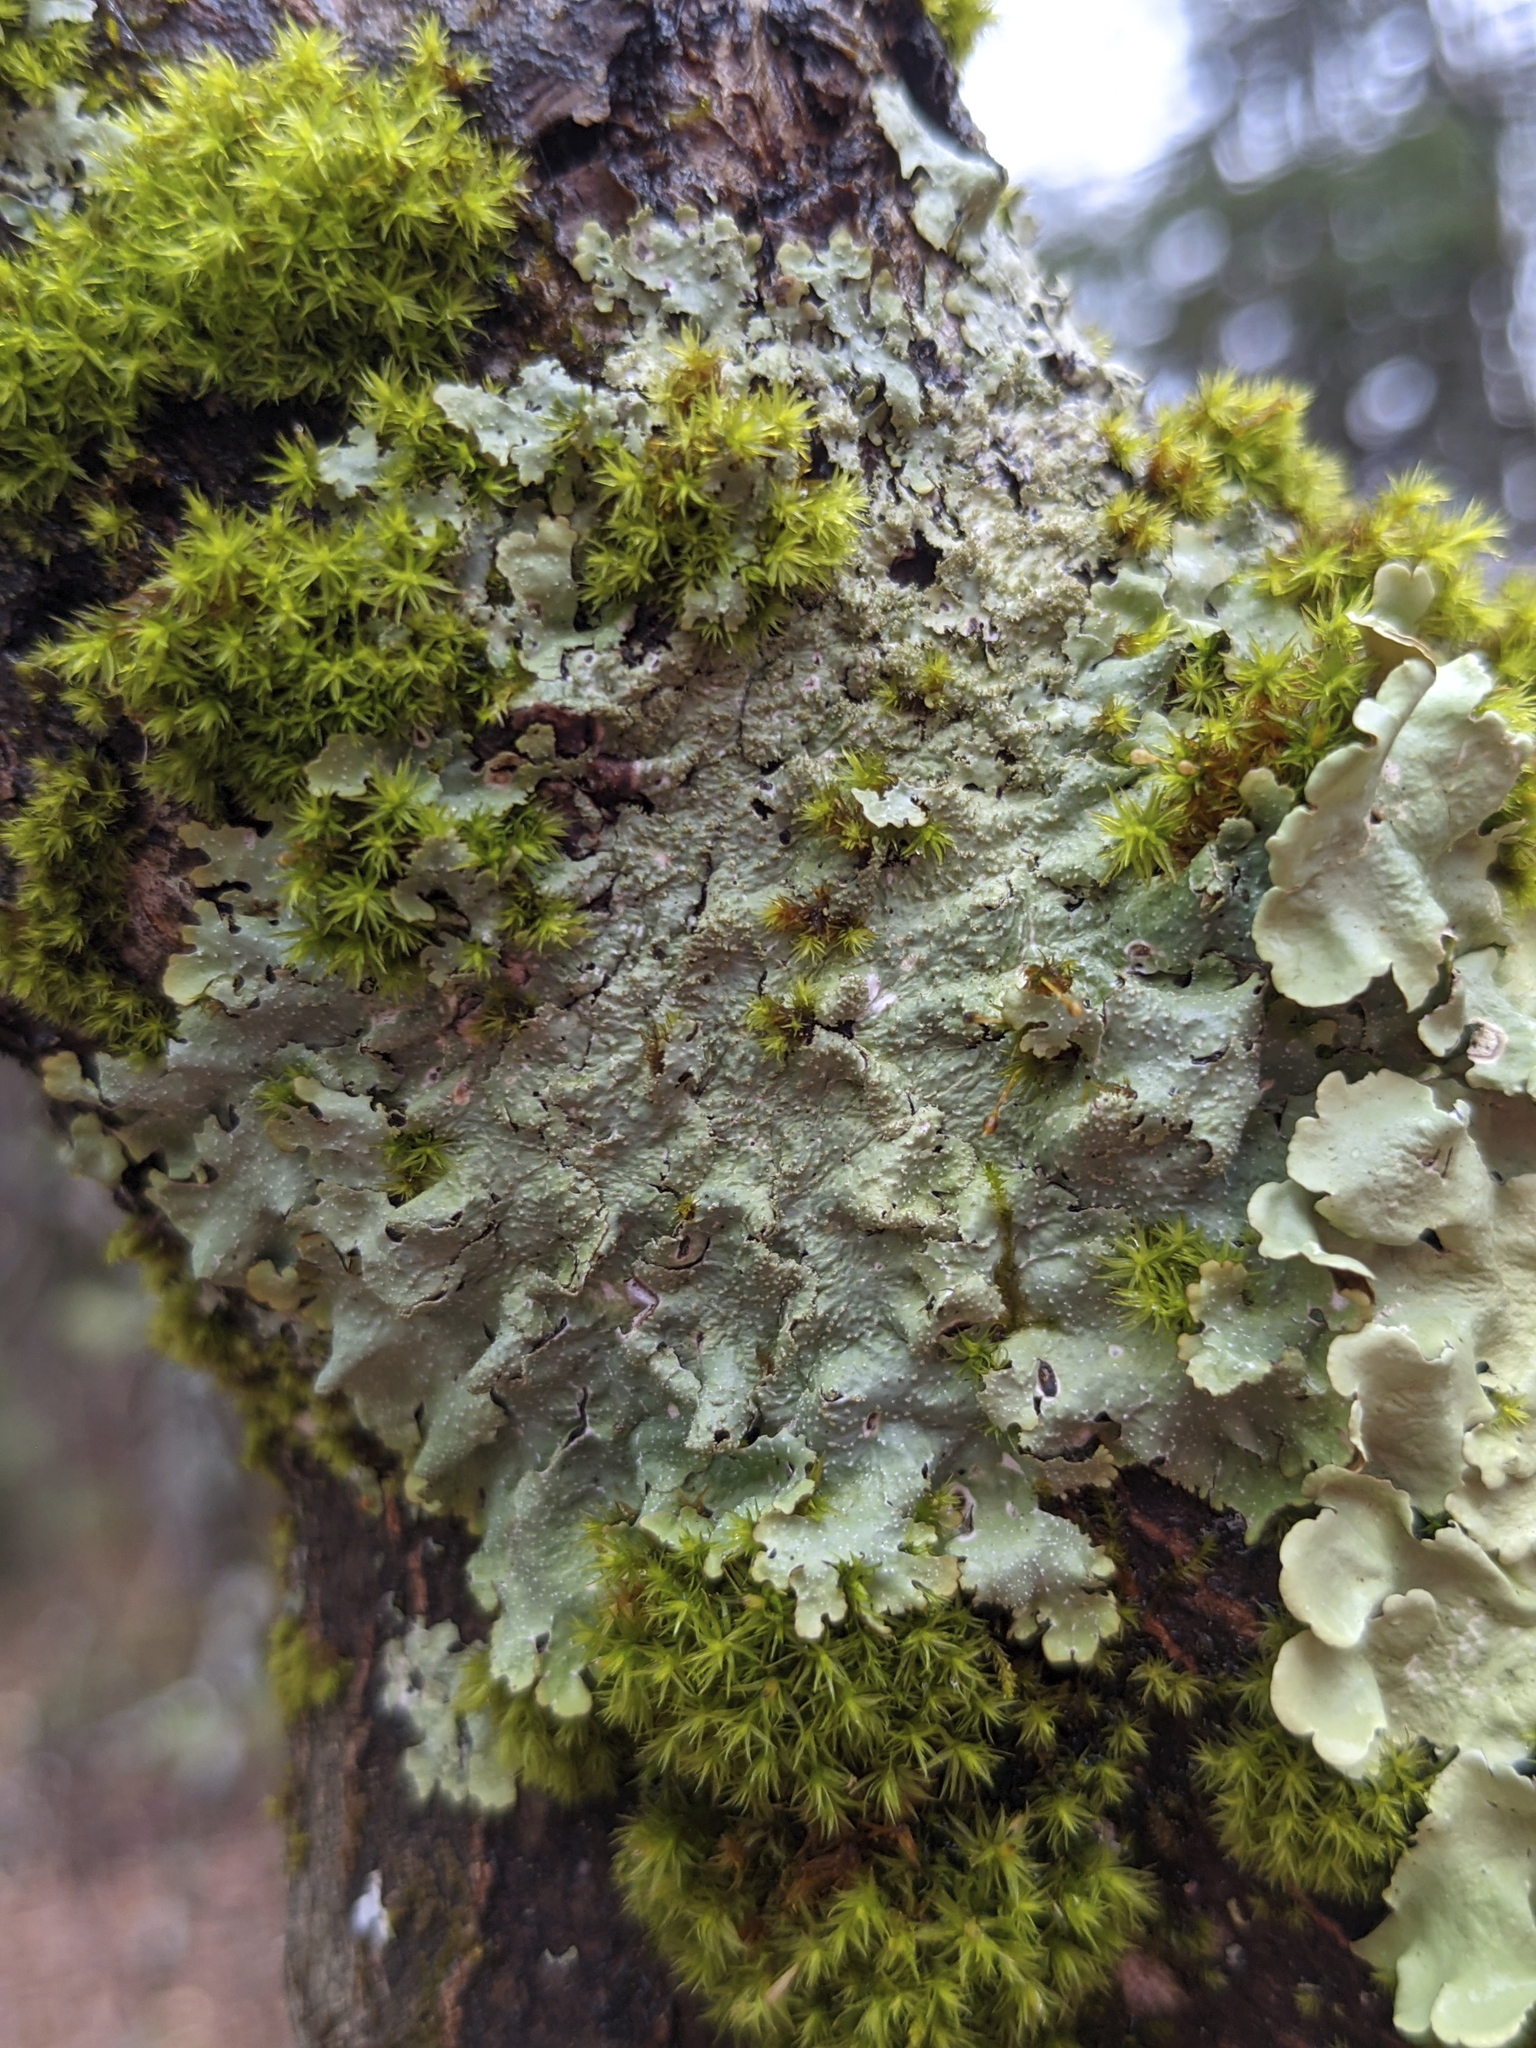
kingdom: Plantae
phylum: Bryophyta
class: Bryopsida
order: Orthotrichales
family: Orthotrichaceae
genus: Ulota
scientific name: Ulota crispa
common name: Crisped pincushion moss
